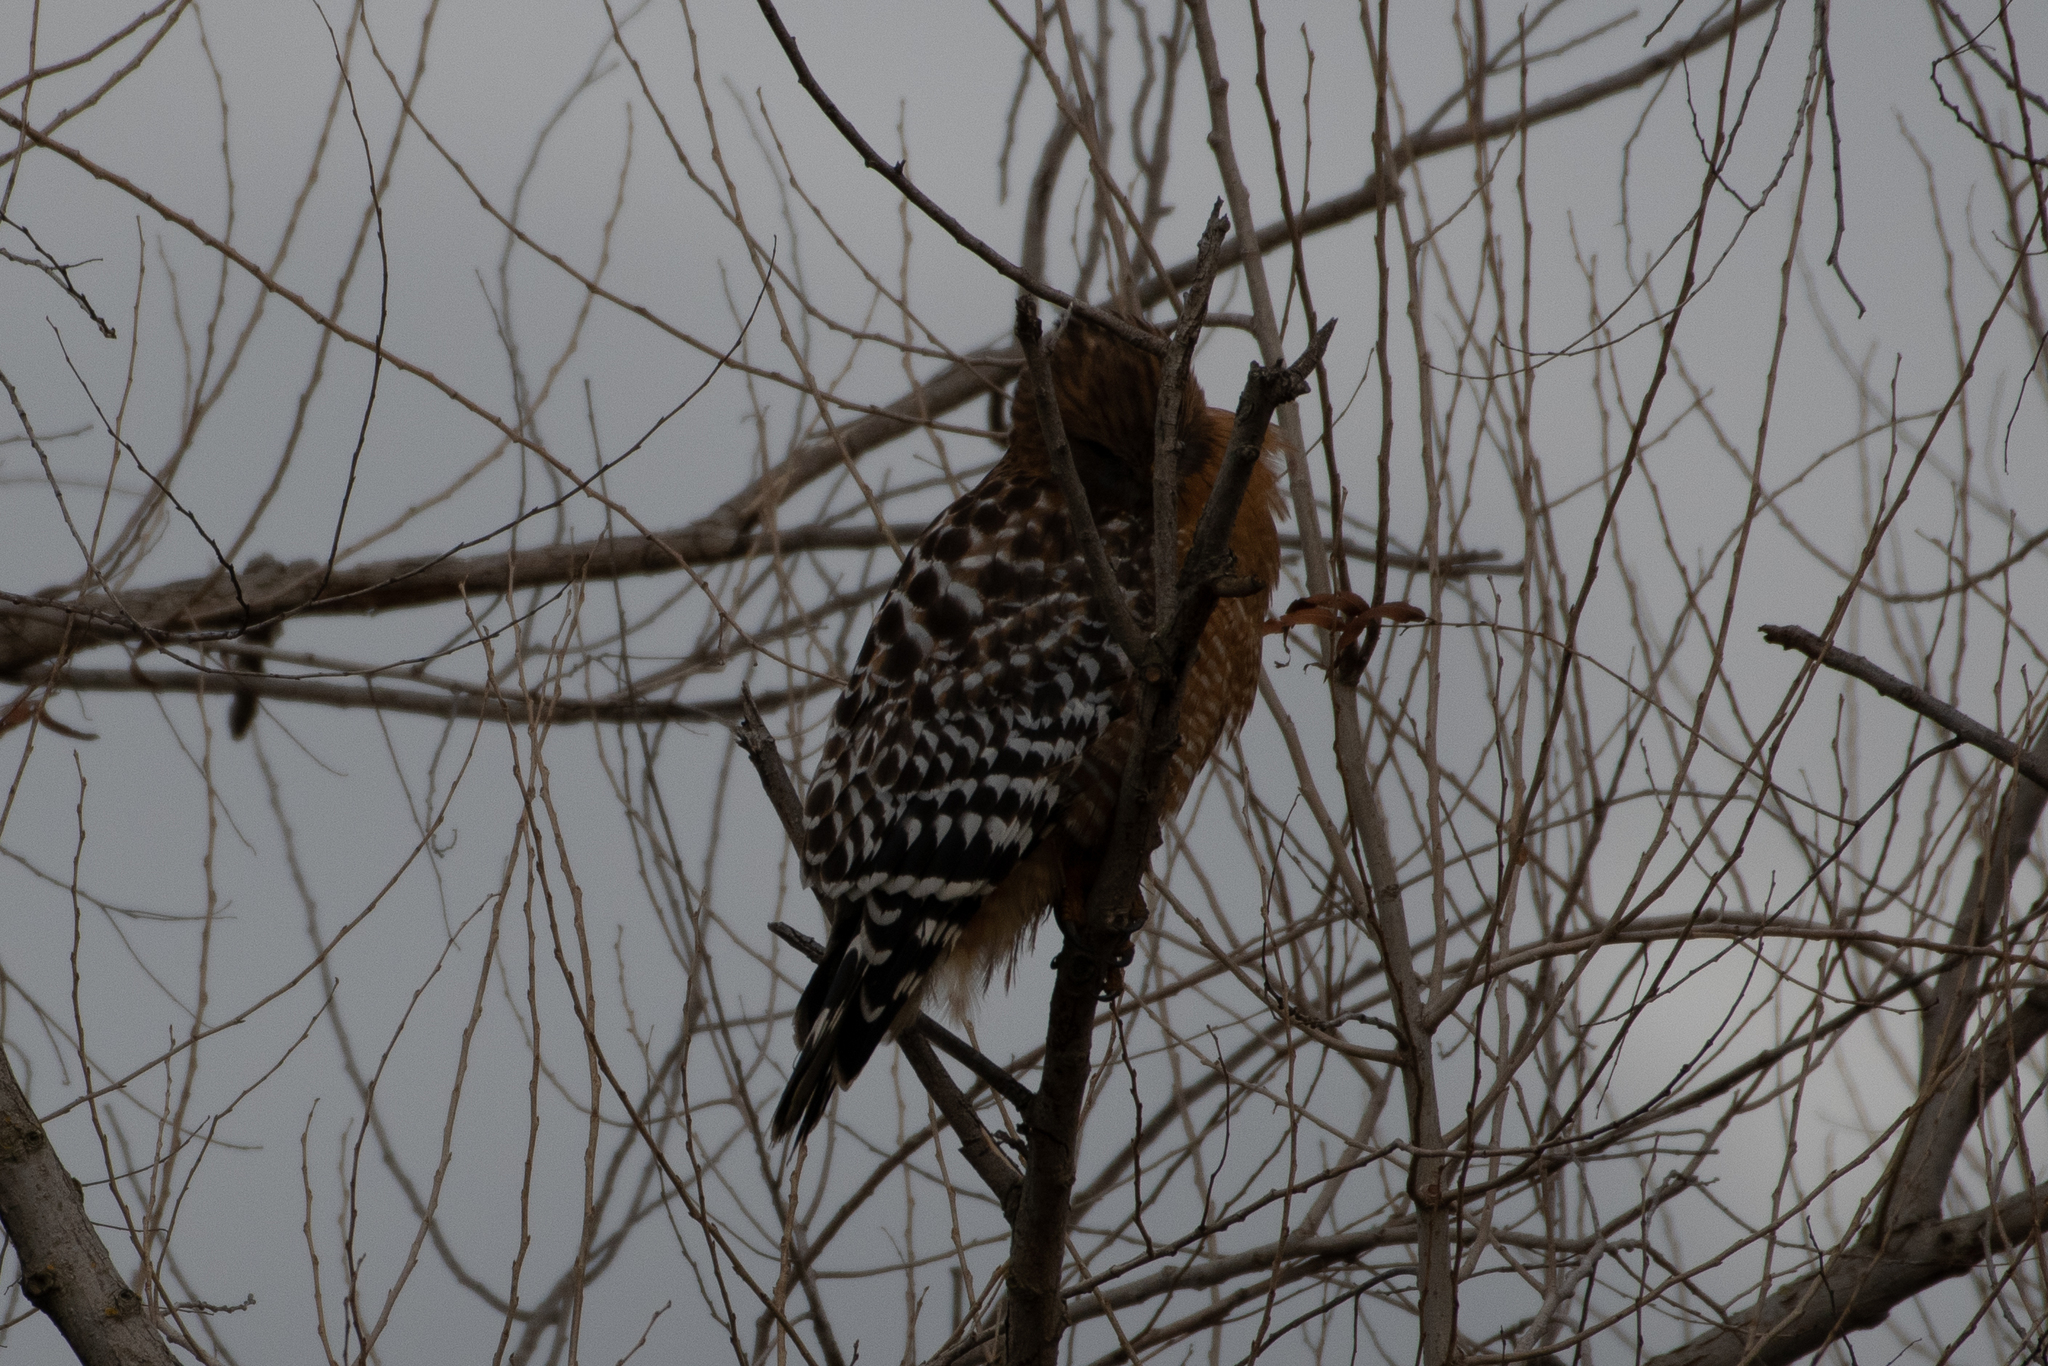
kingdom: Animalia
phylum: Chordata
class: Aves
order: Accipitriformes
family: Accipitridae
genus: Buteo
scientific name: Buteo lineatus
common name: Red-shouldered hawk
